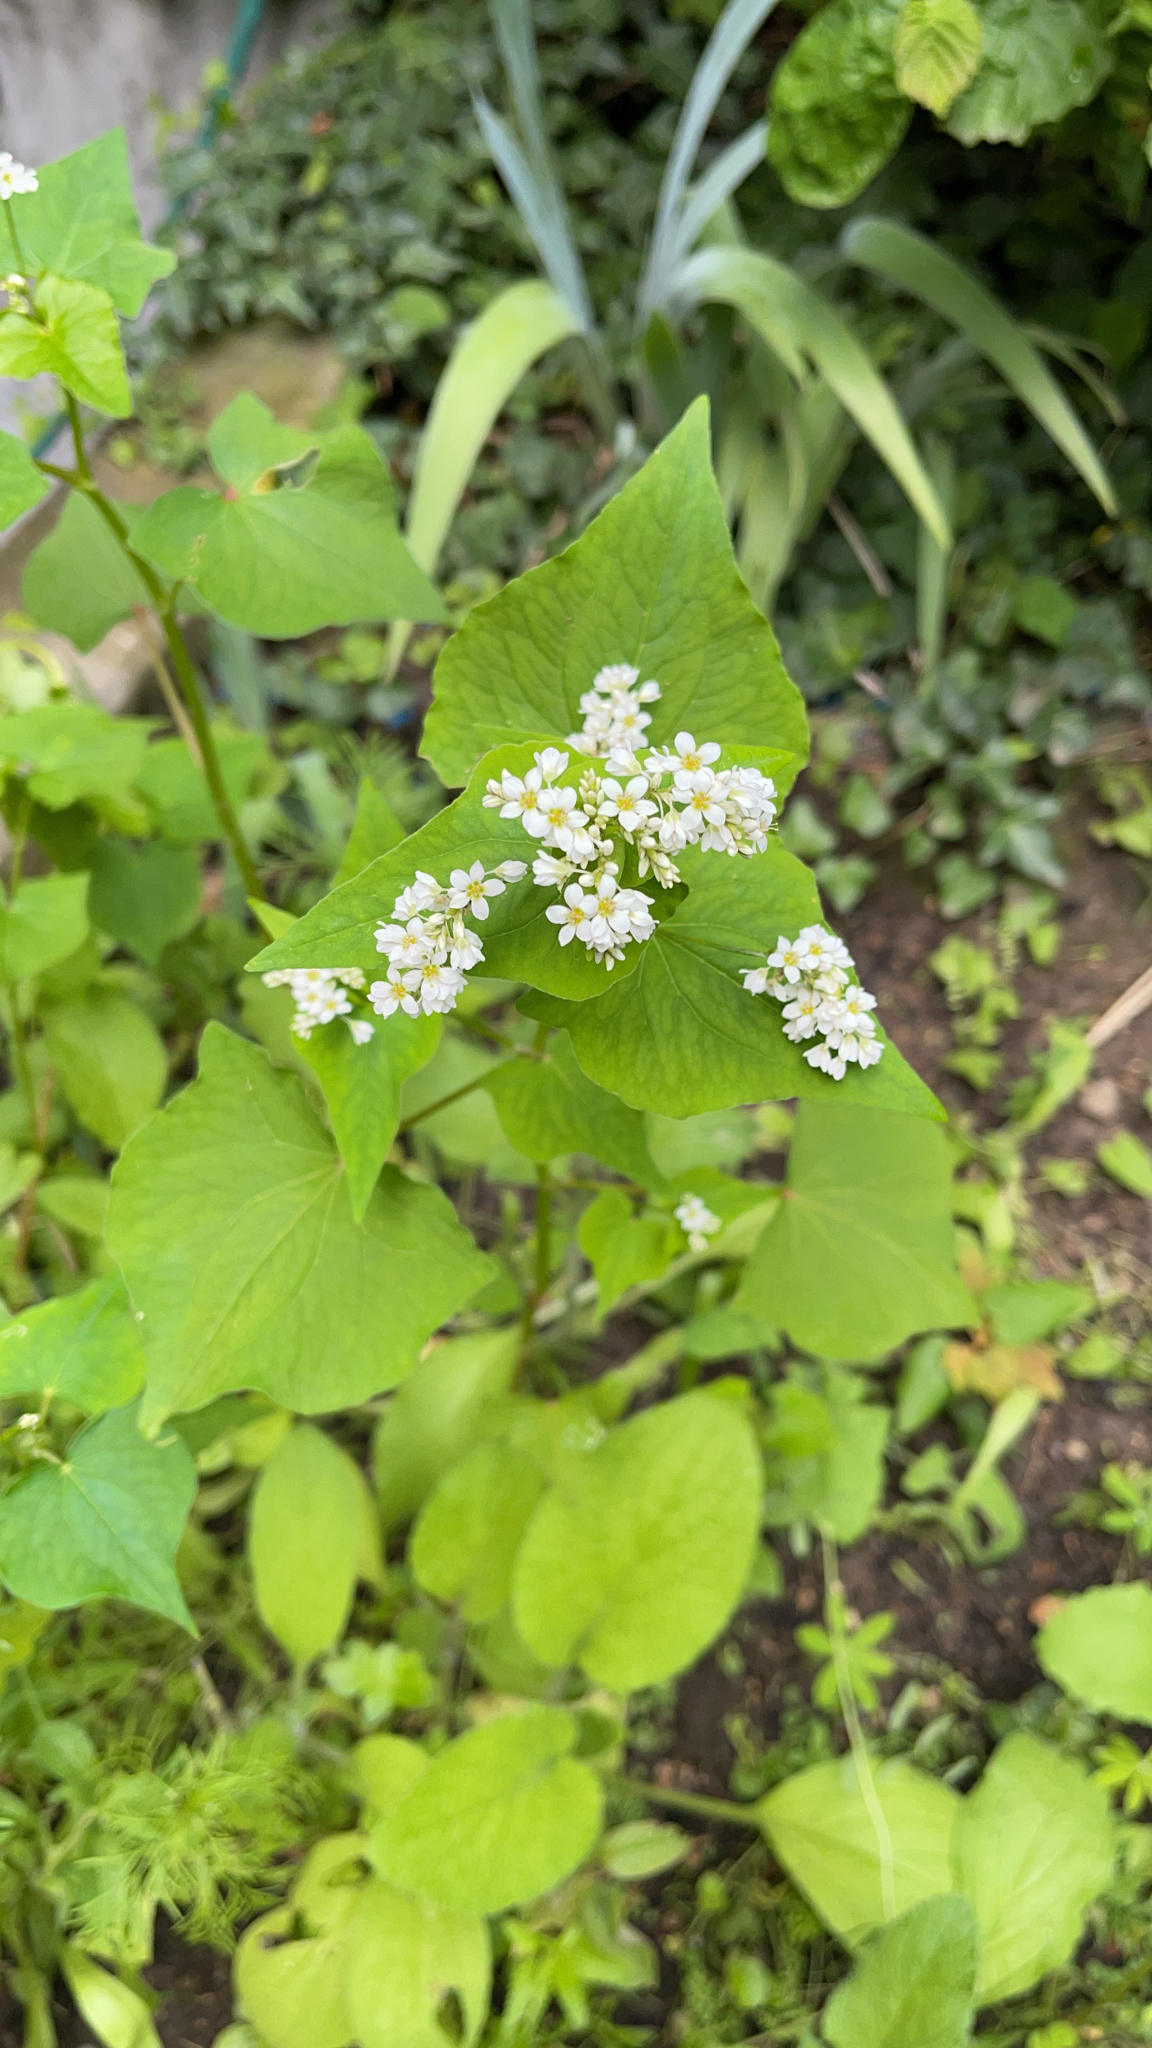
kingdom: Plantae
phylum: Tracheophyta
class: Magnoliopsida
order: Caryophyllales
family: Polygonaceae
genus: Fagopyrum
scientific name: Fagopyrum esculentum
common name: Buckwheat
